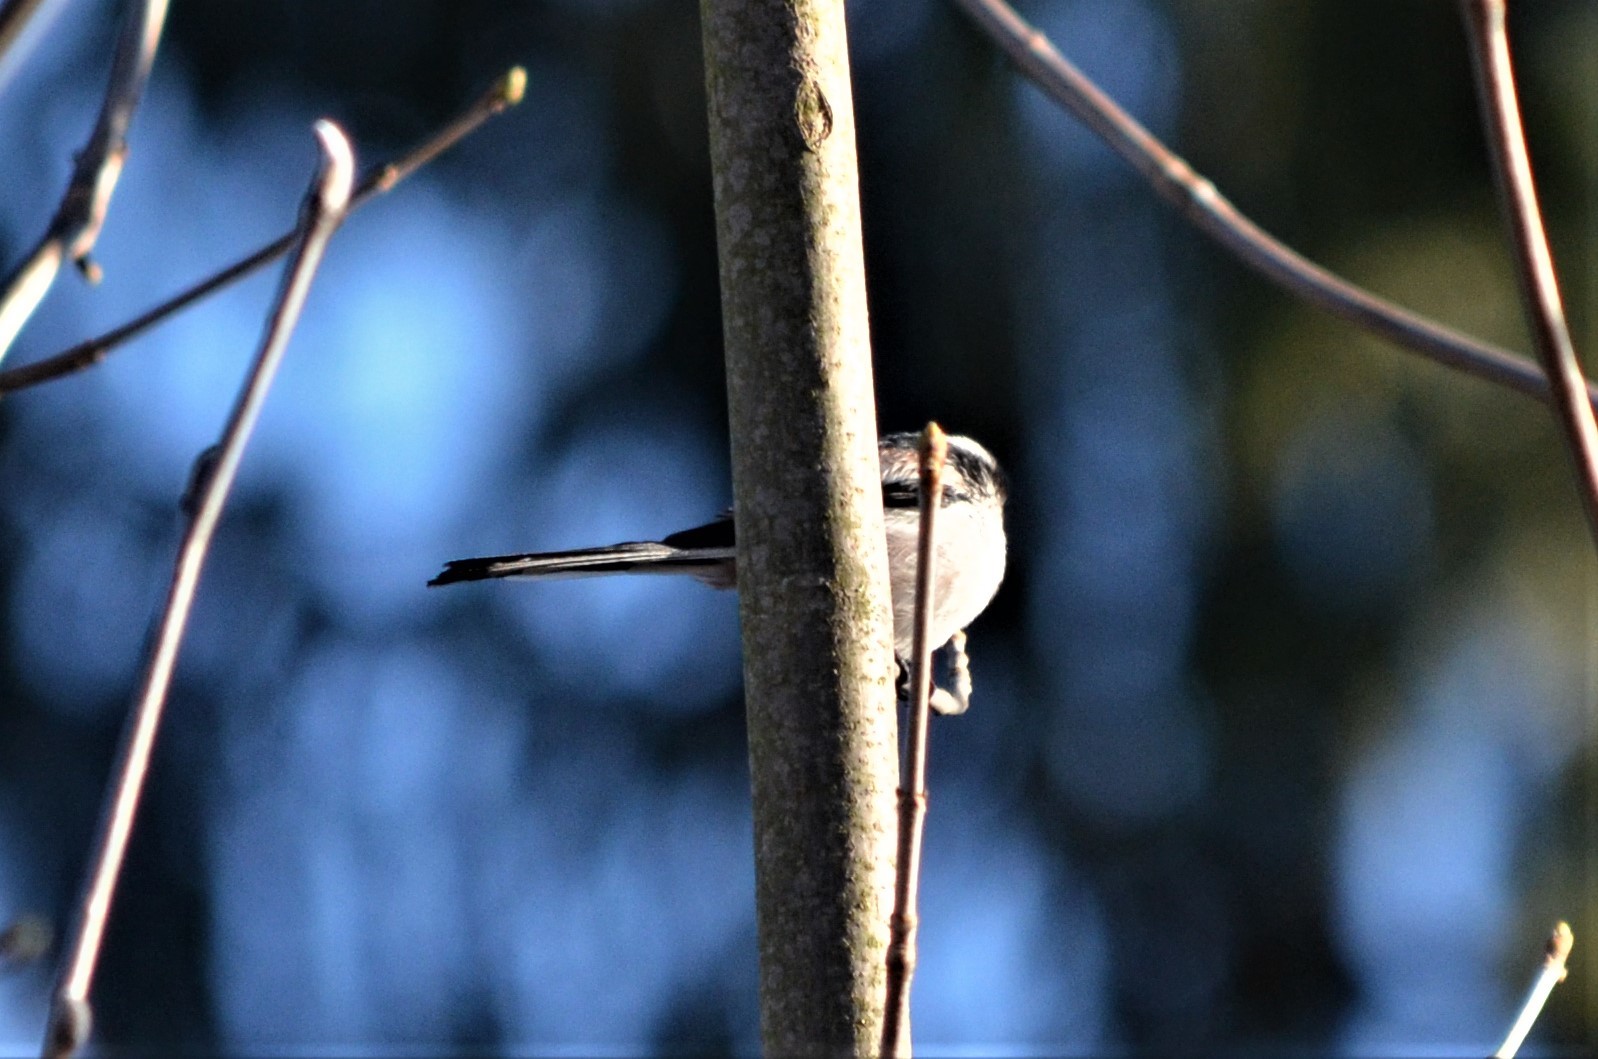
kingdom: Animalia
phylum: Chordata
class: Aves
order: Passeriformes
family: Aegithalidae
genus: Aegithalos
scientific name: Aegithalos caudatus
